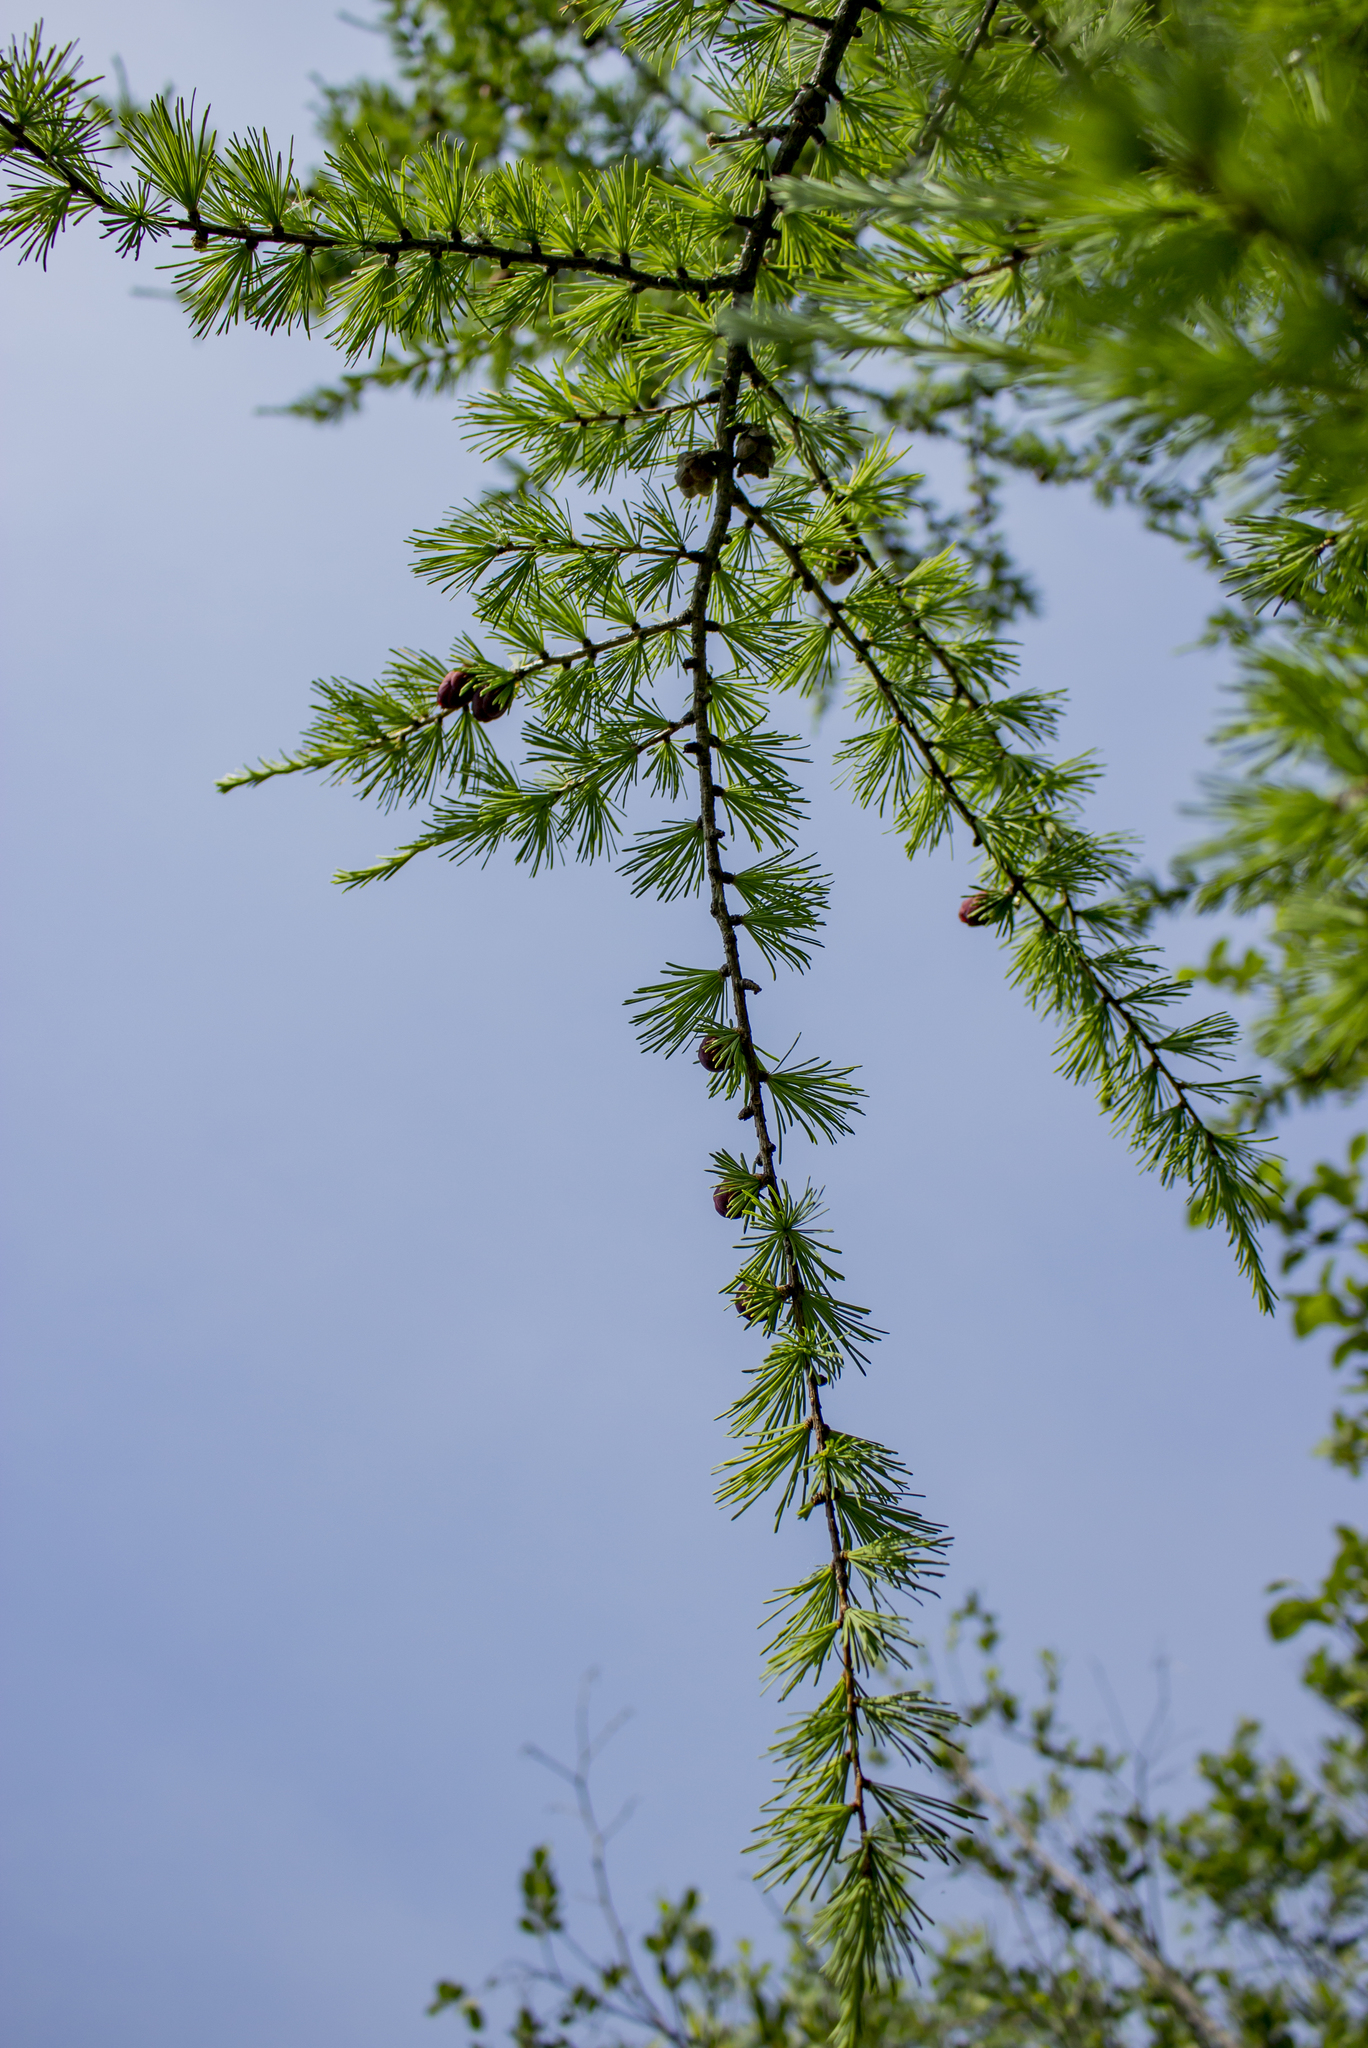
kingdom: Plantae
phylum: Tracheophyta
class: Pinopsida
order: Pinales
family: Pinaceae
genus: Larix
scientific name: Larix laricina
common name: American larch
